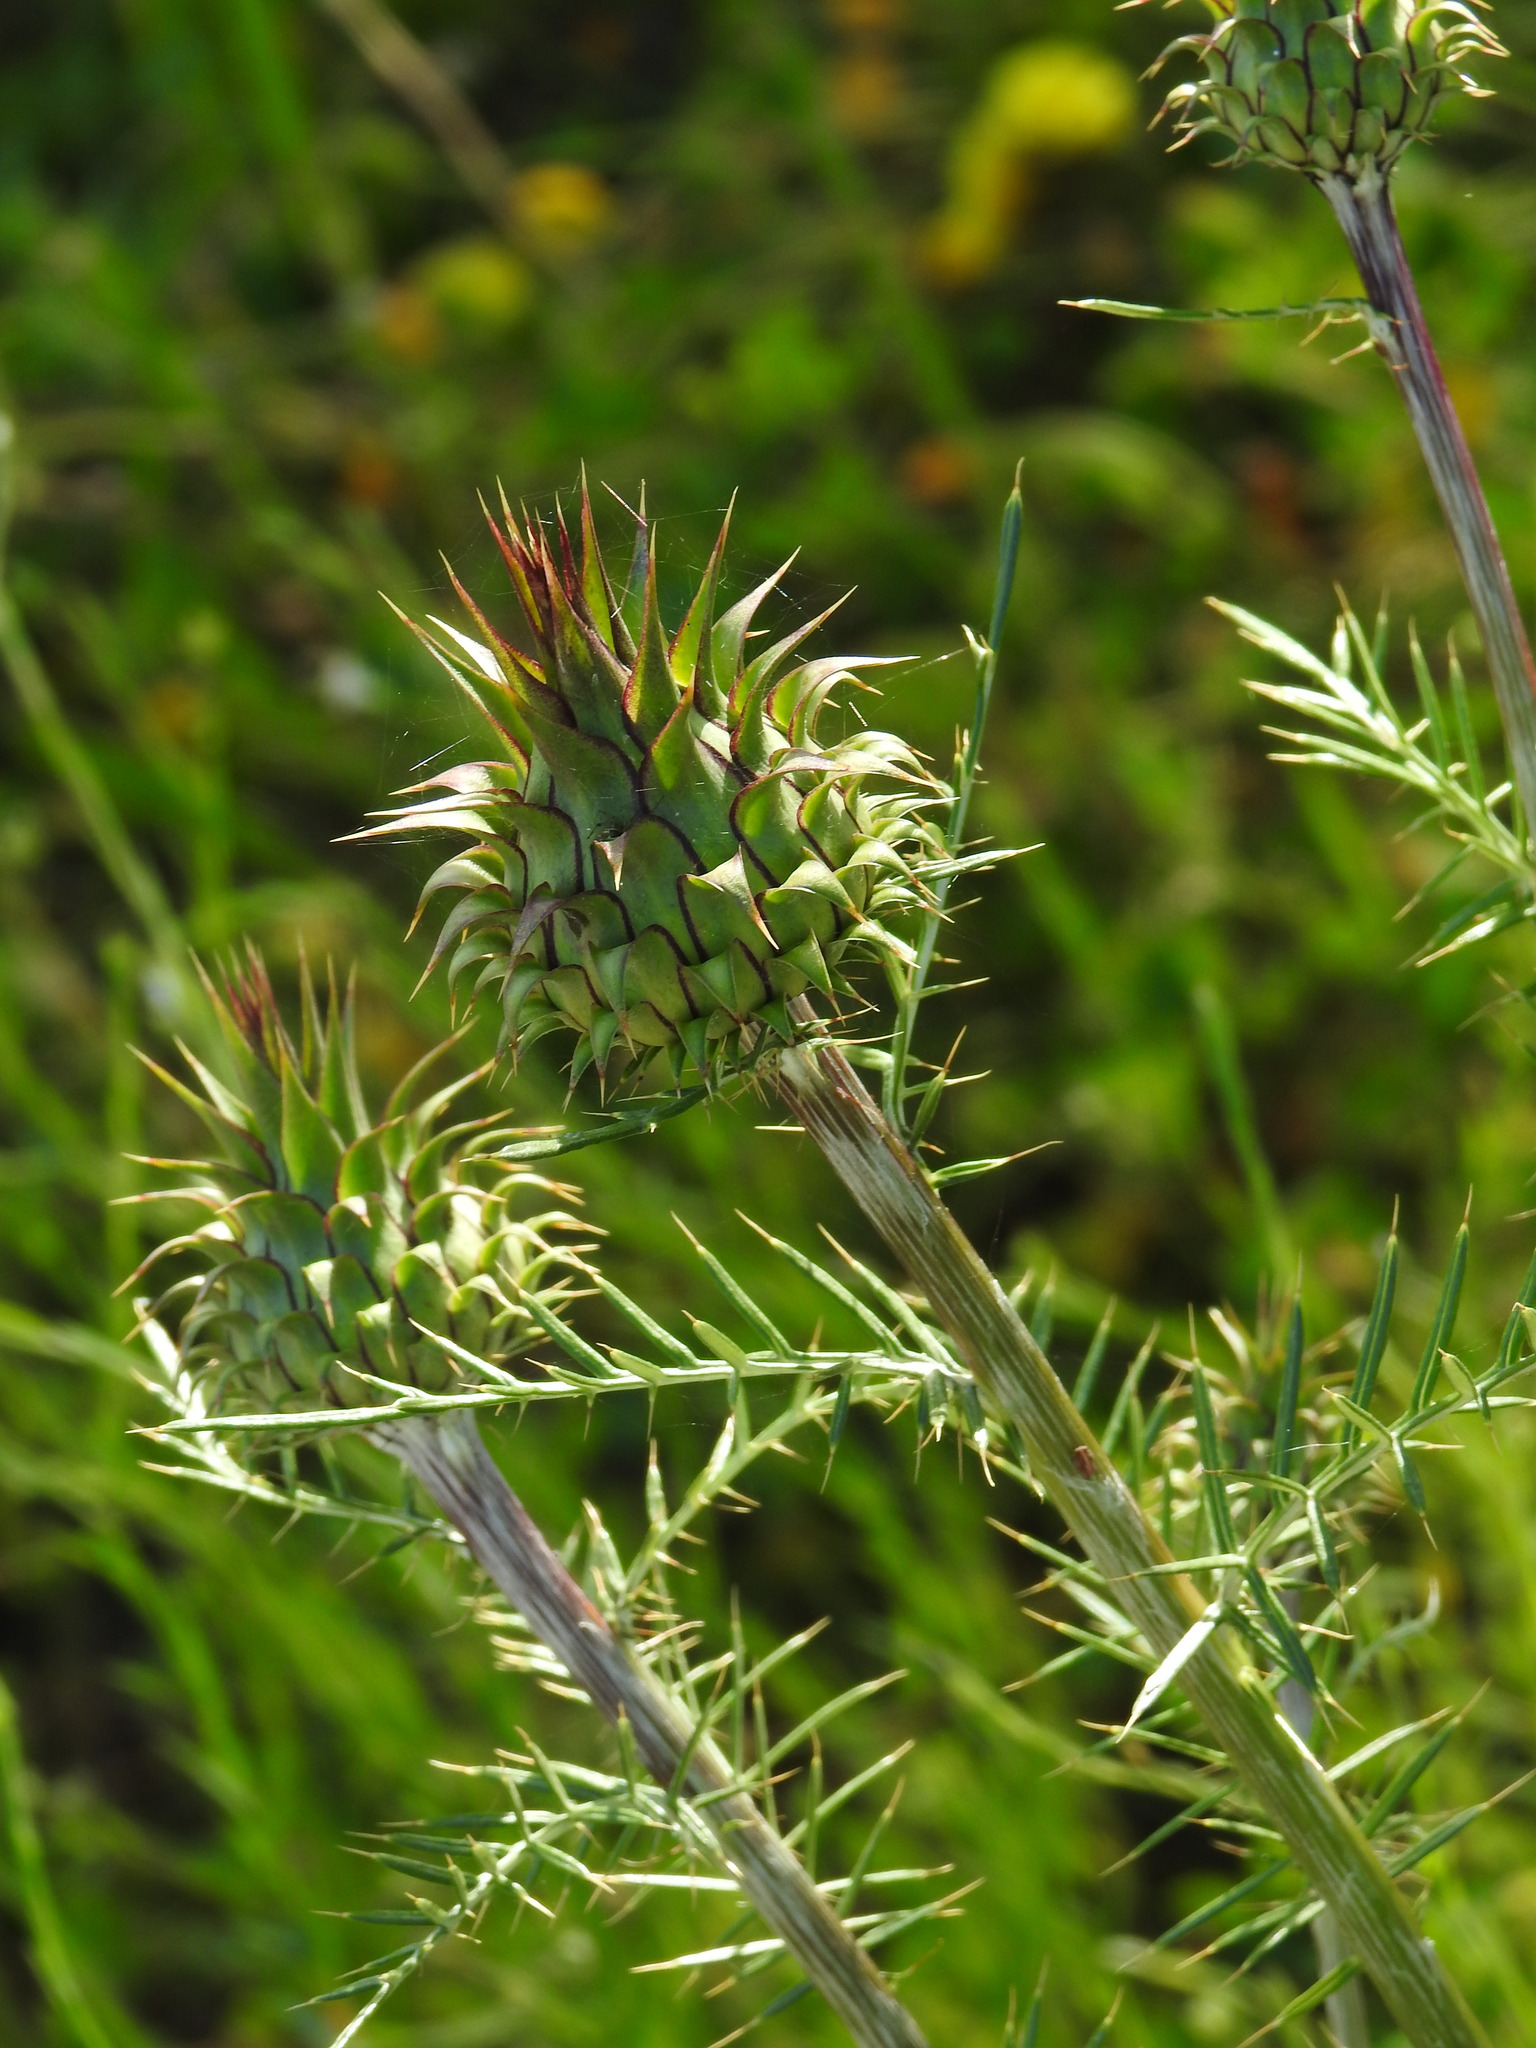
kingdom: Plantae
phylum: Tracheophyta
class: Magnoliopsida
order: Asterales
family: Asteraceae
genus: Cynara
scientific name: Cynara humilis
